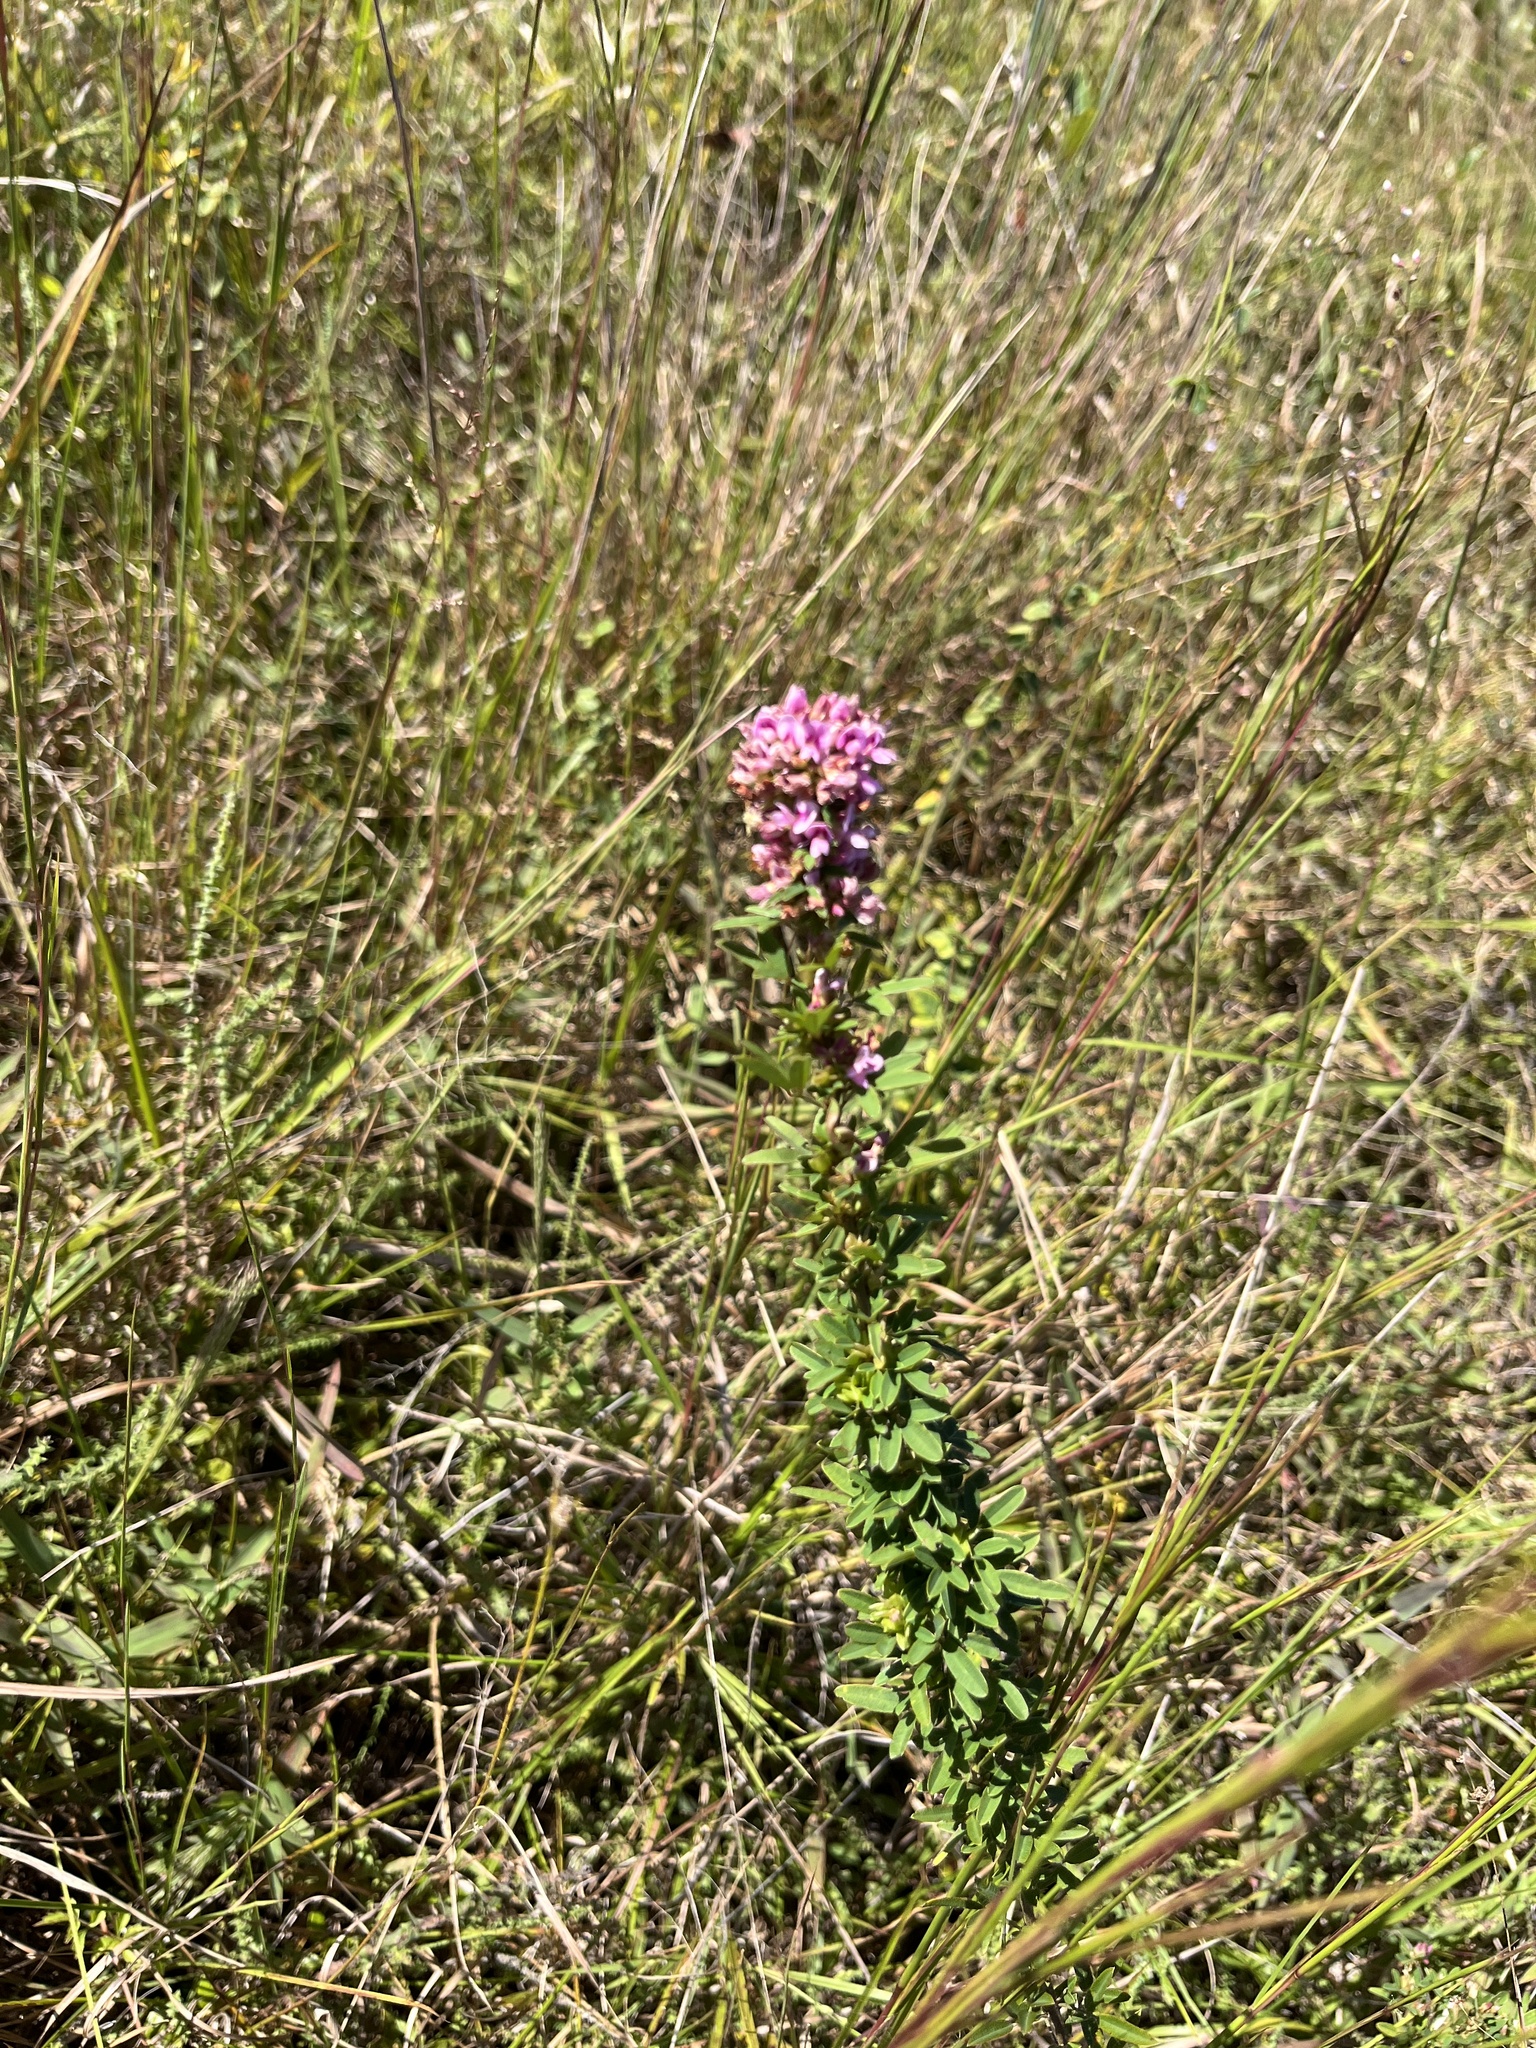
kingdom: Plantae
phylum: Tracheophyta
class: Magnoliopsida
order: Fabales
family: Fabaceae
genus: Lespedeza
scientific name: Lespedeza virginica
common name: Slender bush-clover
